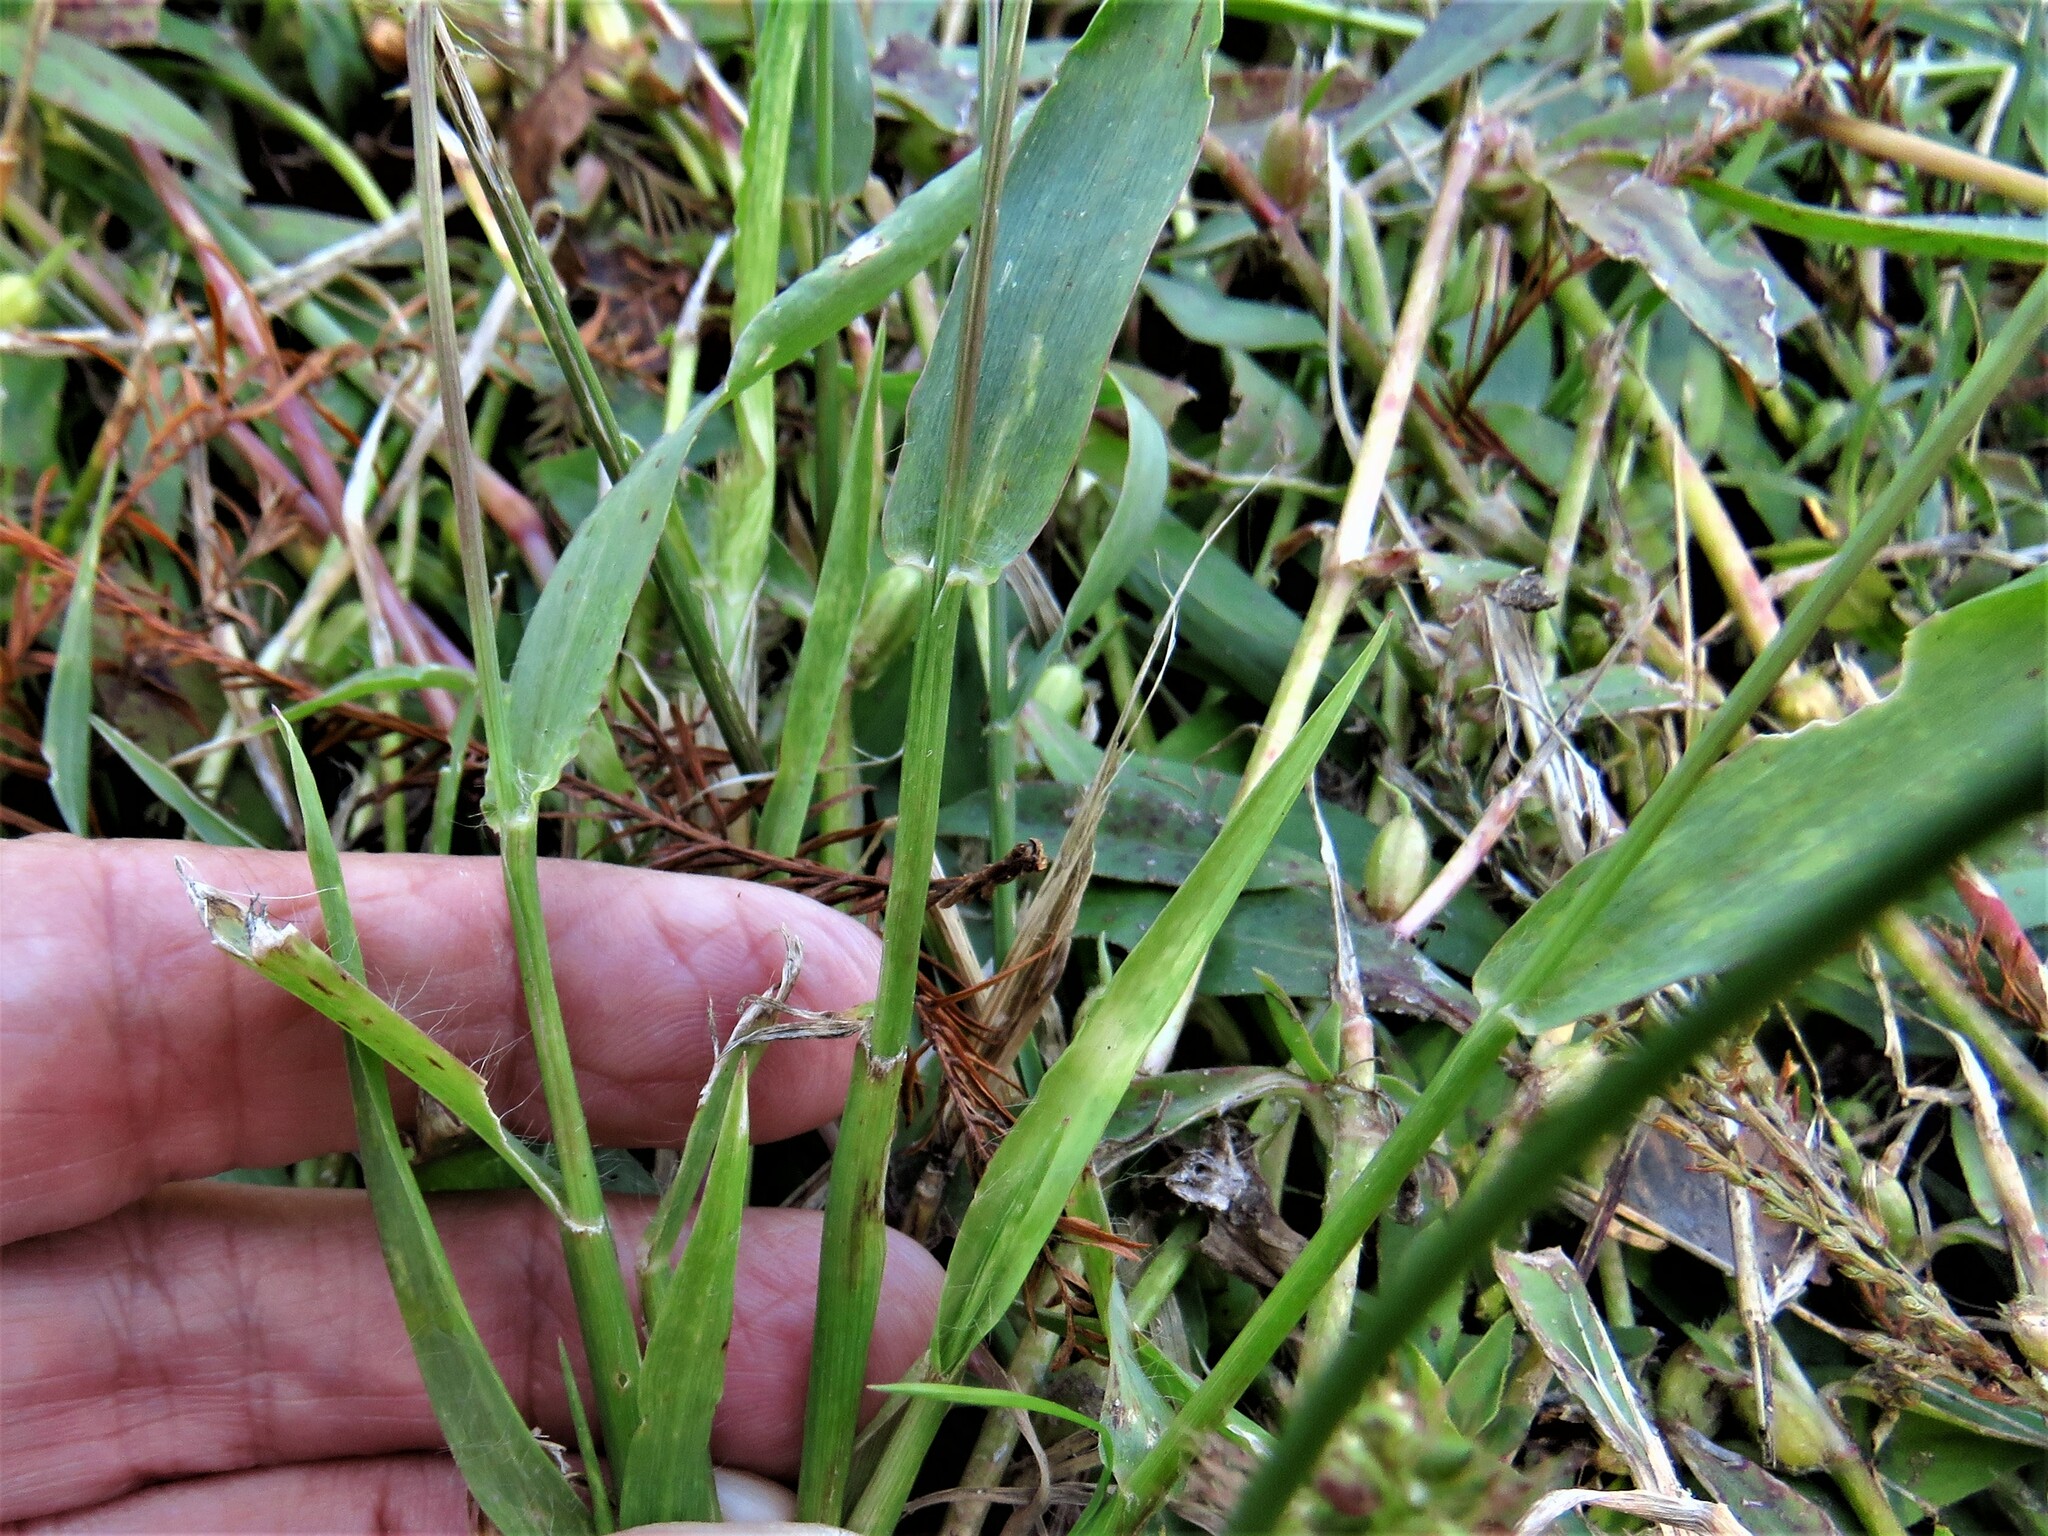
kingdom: Plantae
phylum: Tracheophyta
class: Liliopsida
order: Poales
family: Poaceae
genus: Setaria
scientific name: Setaria parviflora
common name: Knotroot bristle-grass
